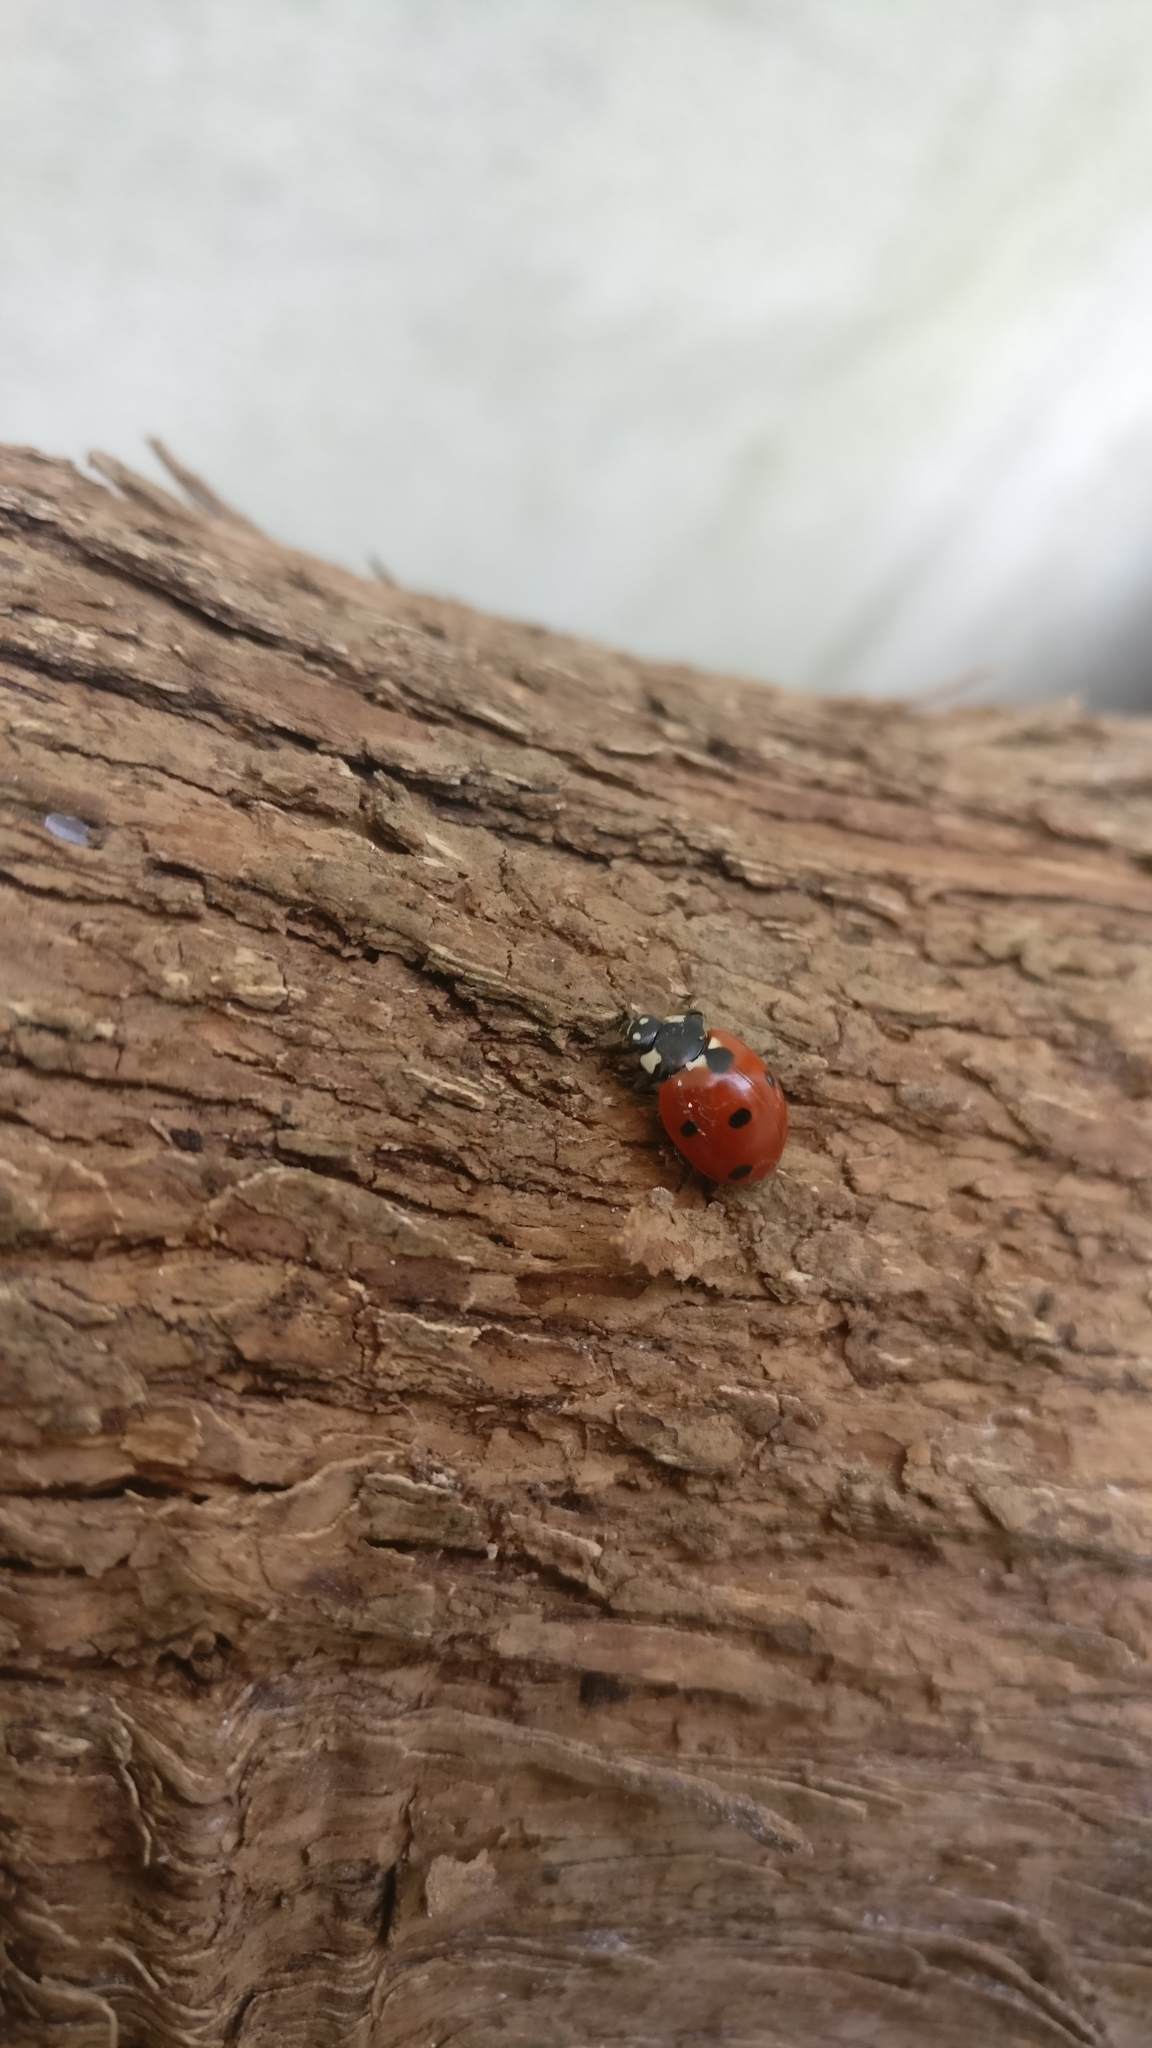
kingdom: Animalia
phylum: Arthropoda
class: Insecta
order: Coleoptera
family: Coccinellidae
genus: Coccinella
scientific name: Coccinella septempunctata
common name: Sevenspotted lady beetle
